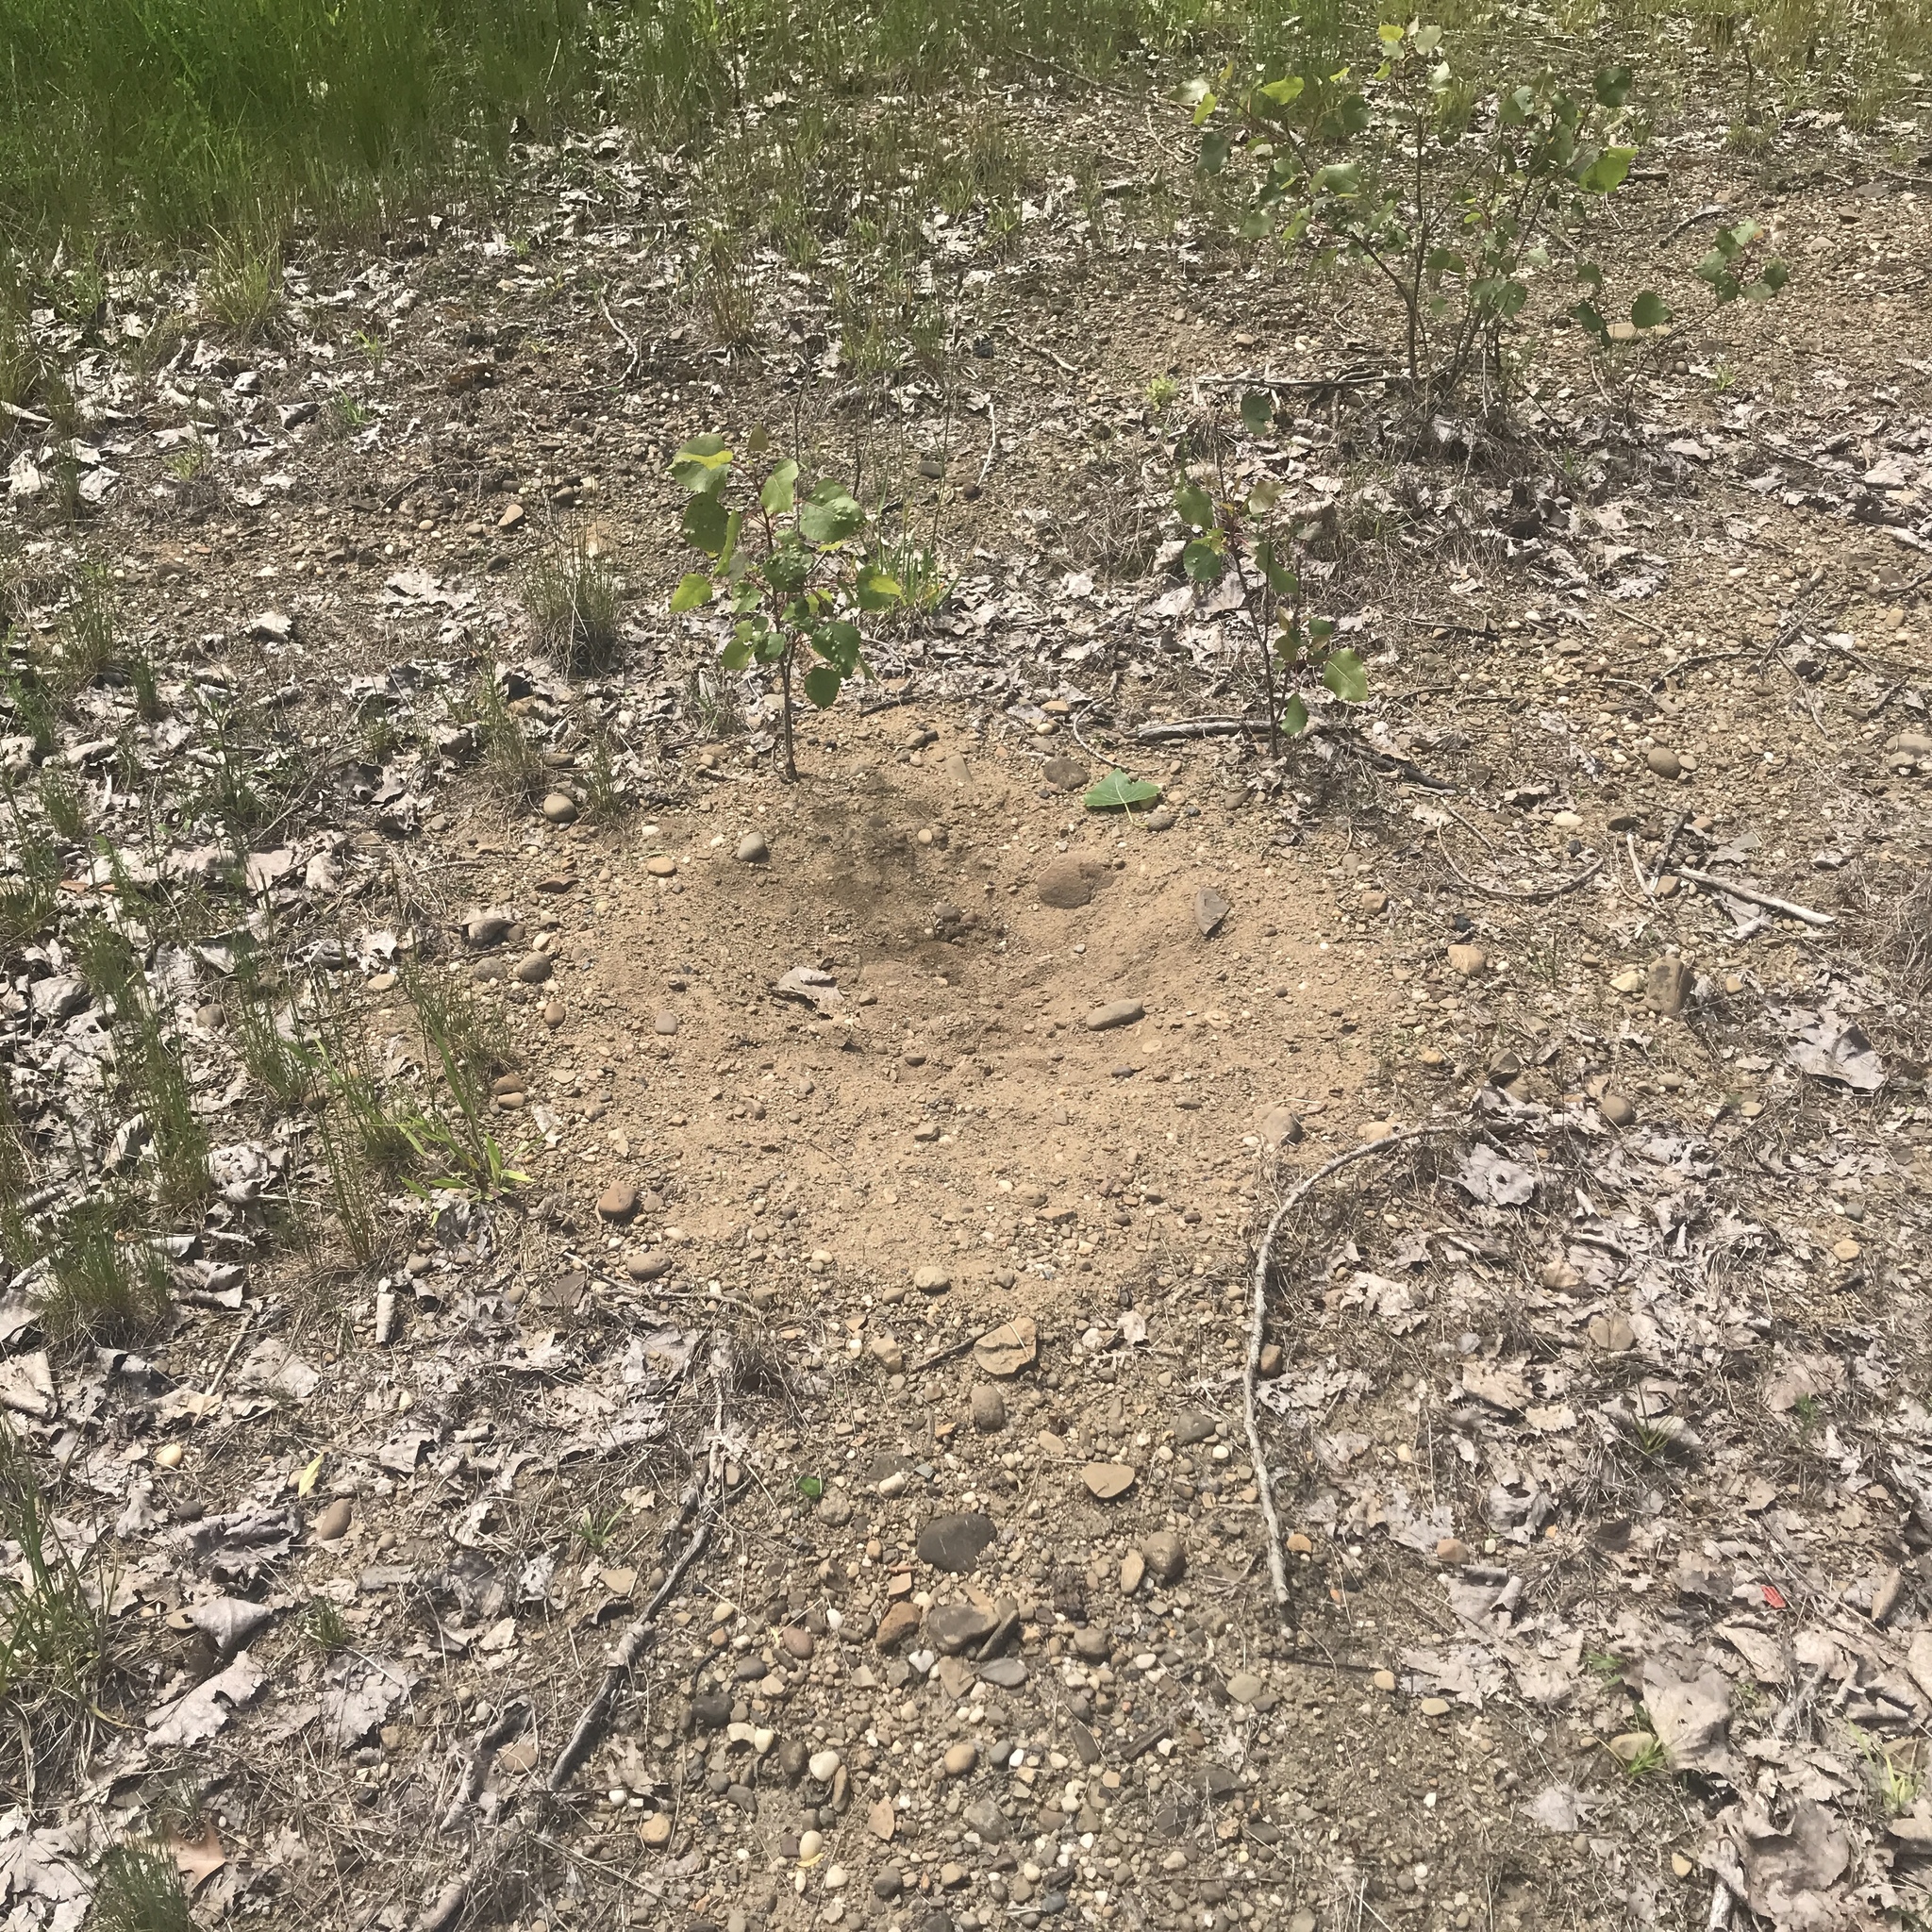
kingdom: Animalia
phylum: Chordata
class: Aves
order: Galliformes
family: Phasianidae
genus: Meleagris
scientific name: Meleagris gallopavo
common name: Wild turkey
